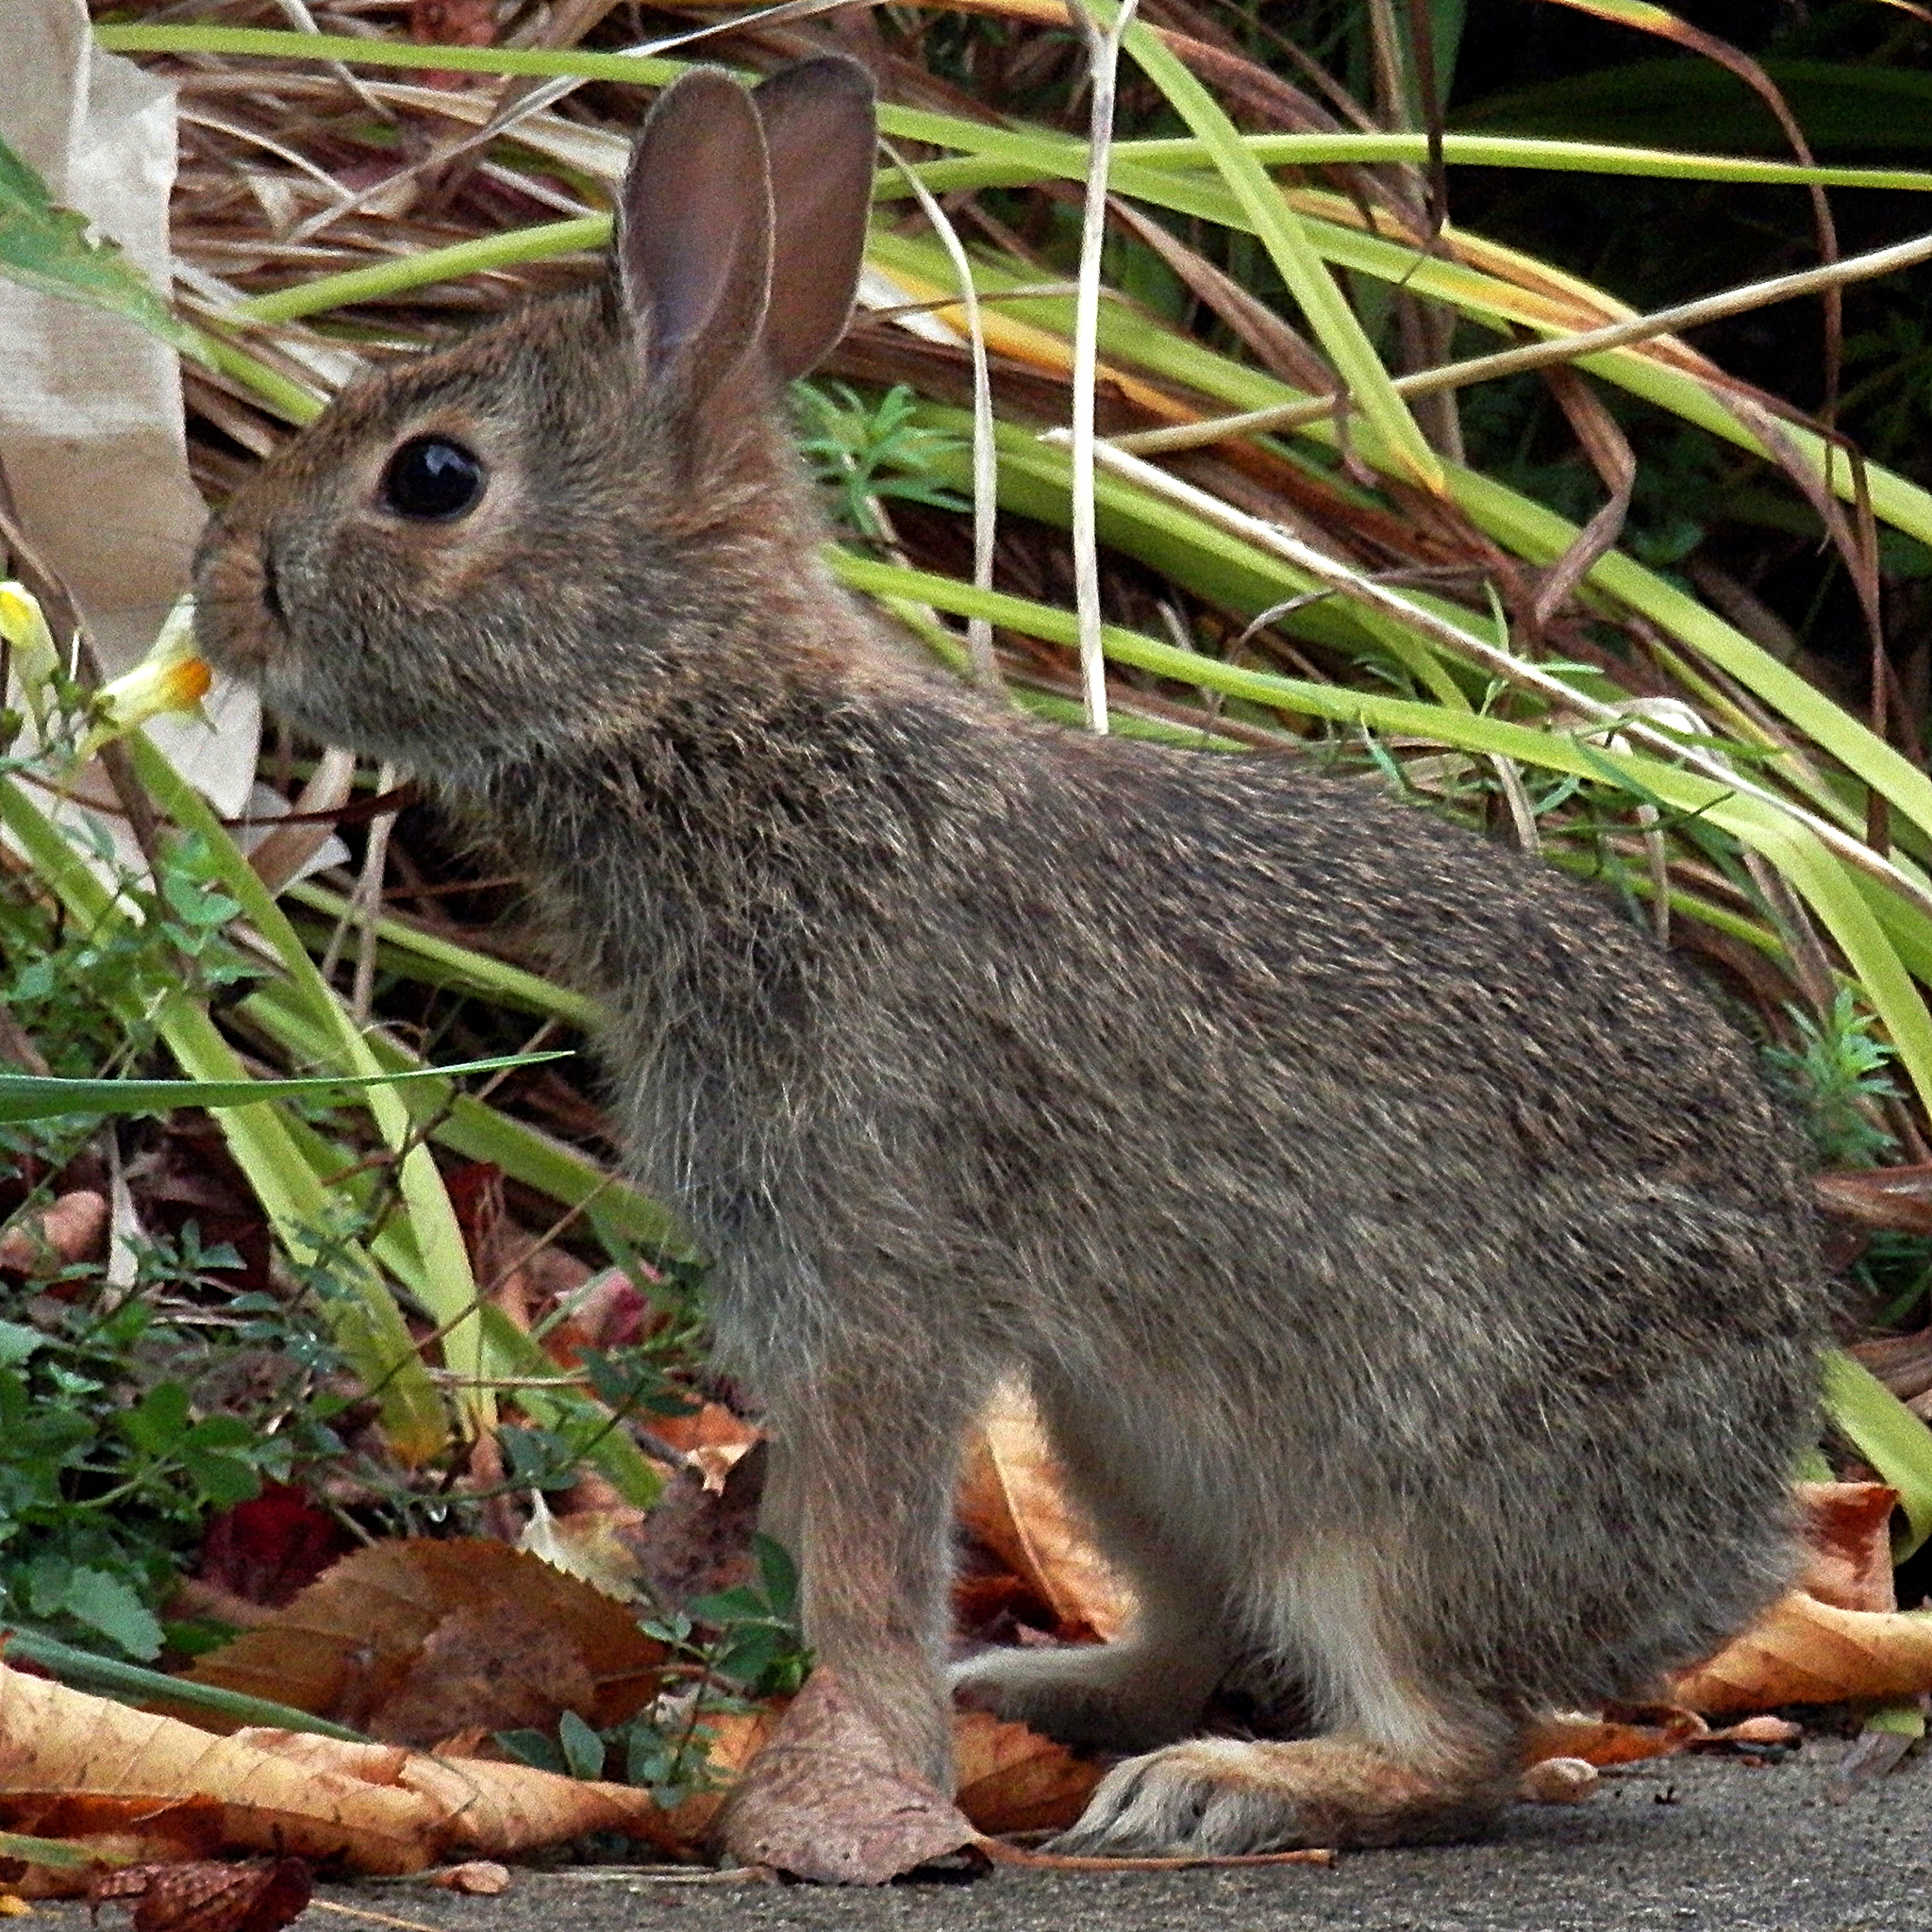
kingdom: Animalia
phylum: Chordata
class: Mammalia
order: Lagomorpha
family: Leporidae
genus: Sylvilagus
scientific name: Sylvilagus floridanus
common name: Eastern cottontail
